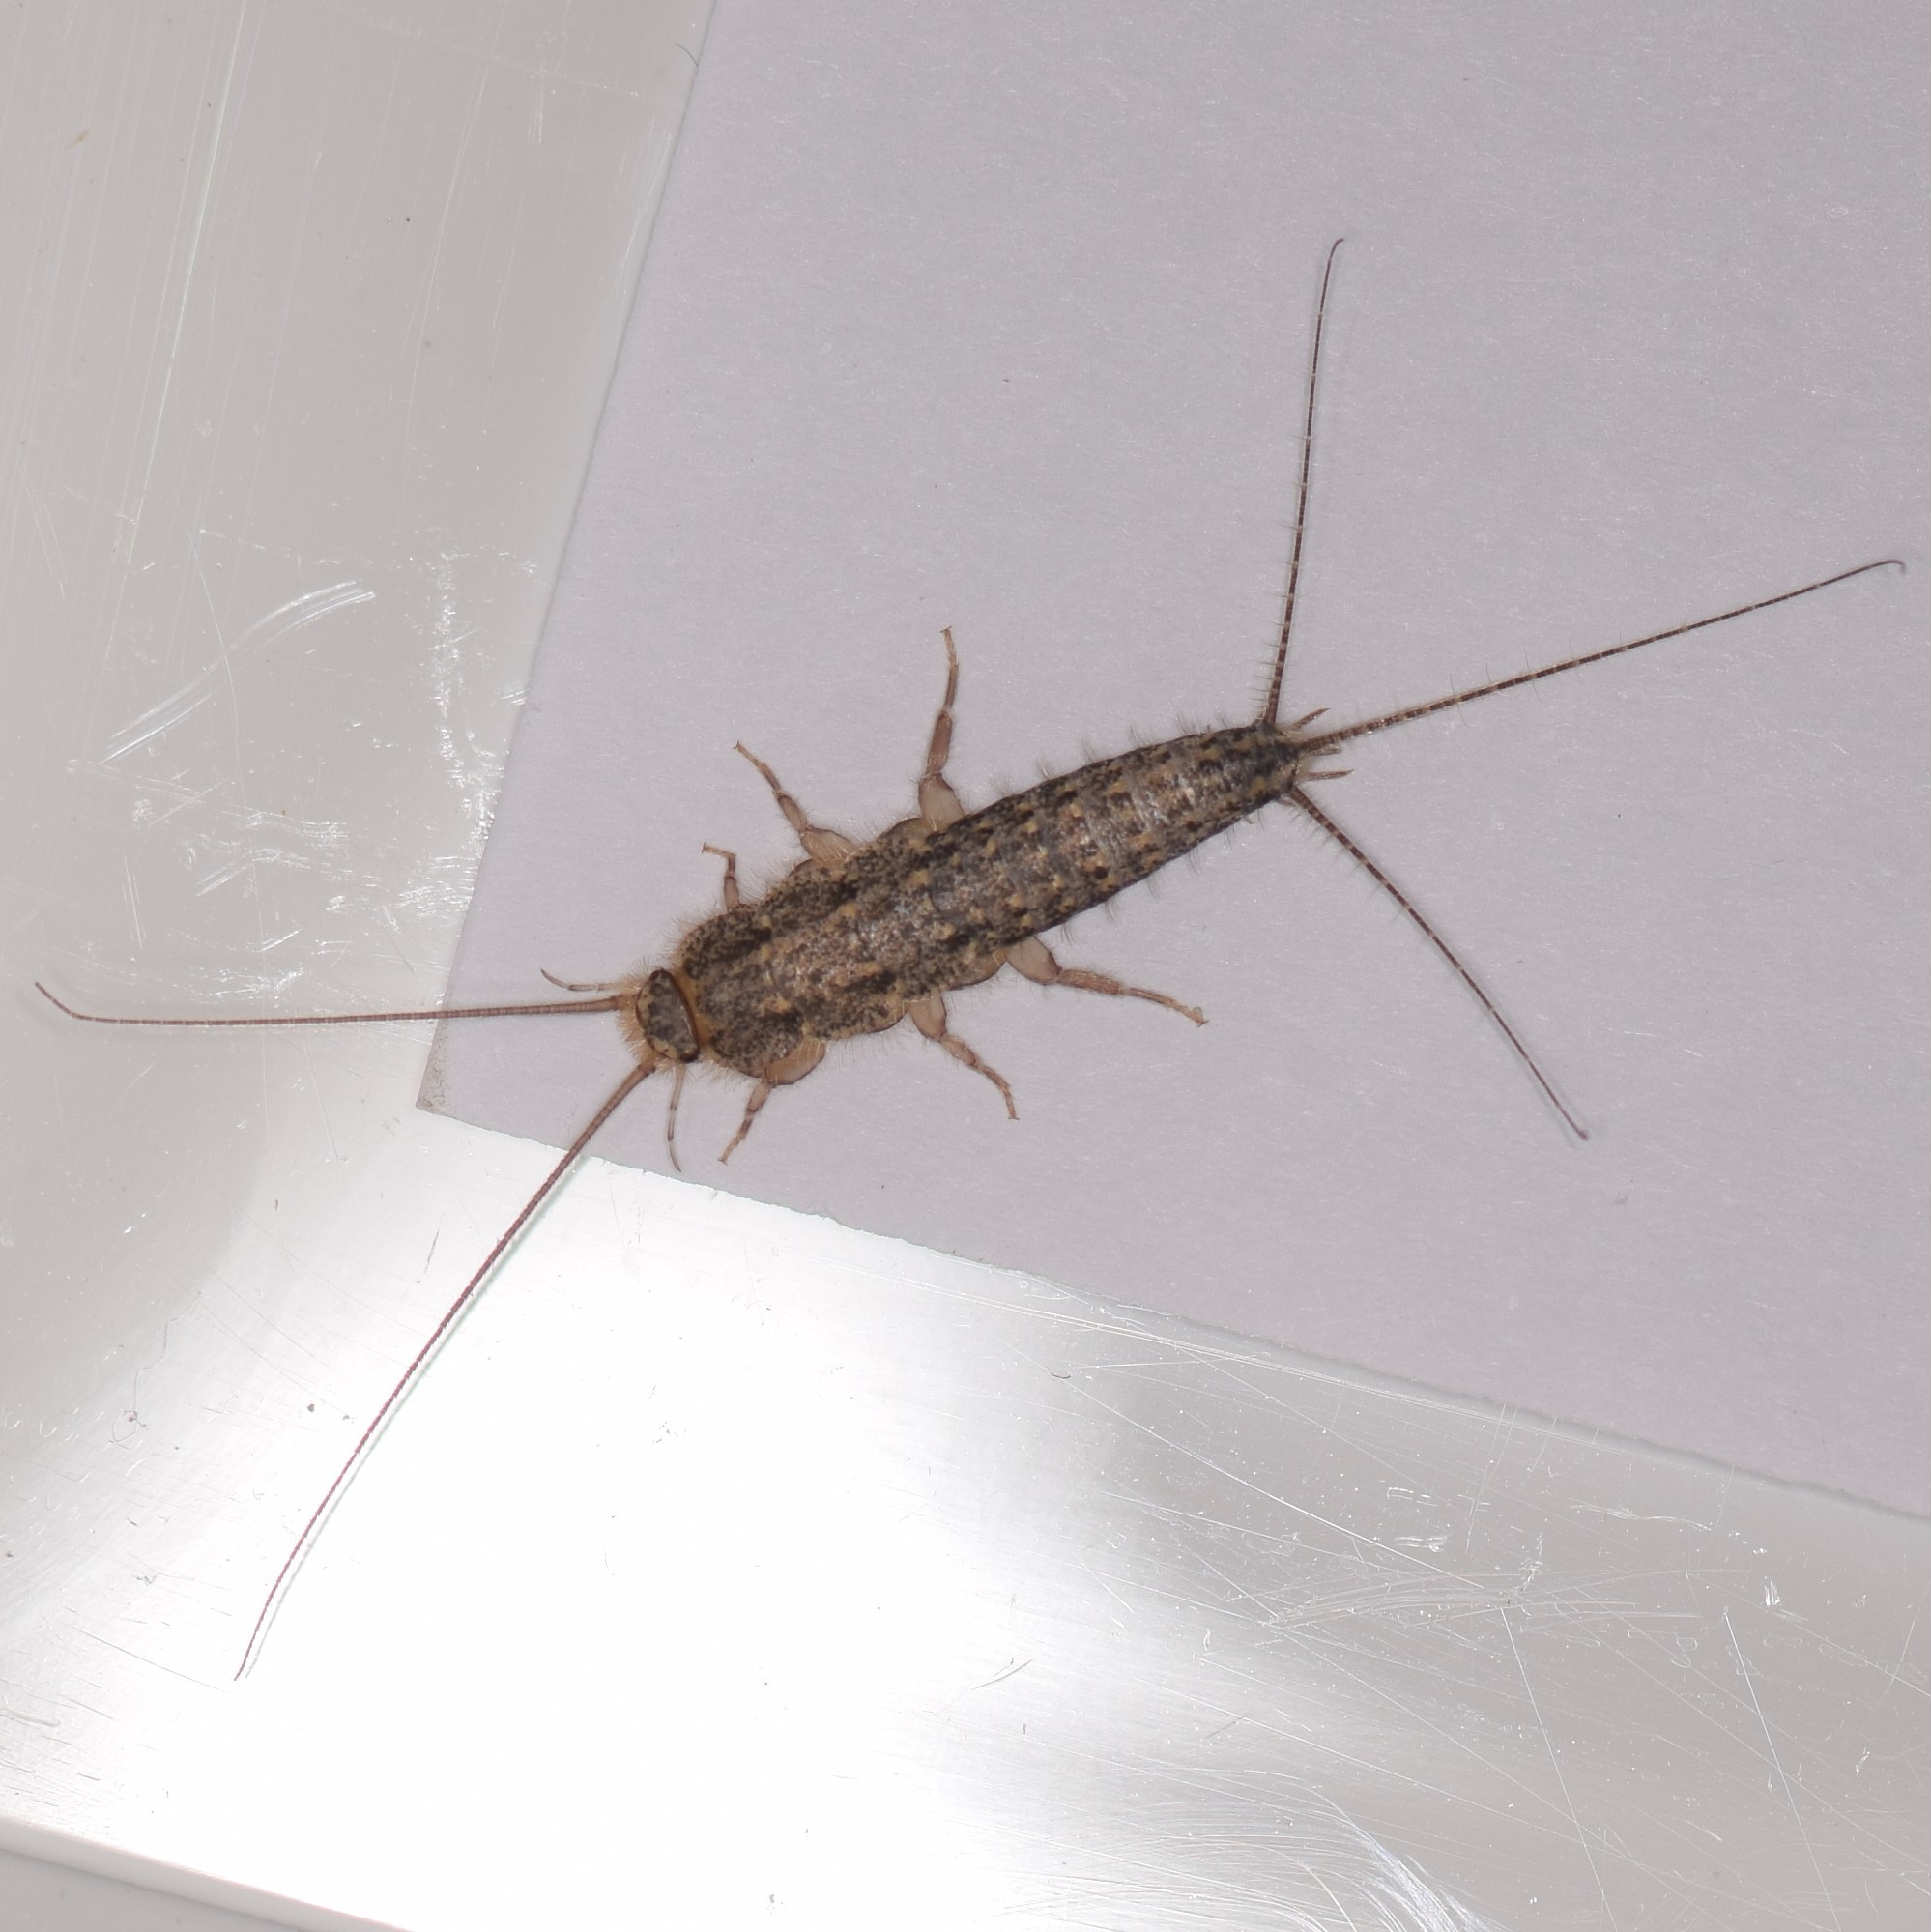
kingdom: Animalia
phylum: Arthropoda
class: Insecta
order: Zygentoma
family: Lepismatidae
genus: Ctenolepisma
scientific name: Ctenolepisma lineata
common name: Four-lined silverfish
